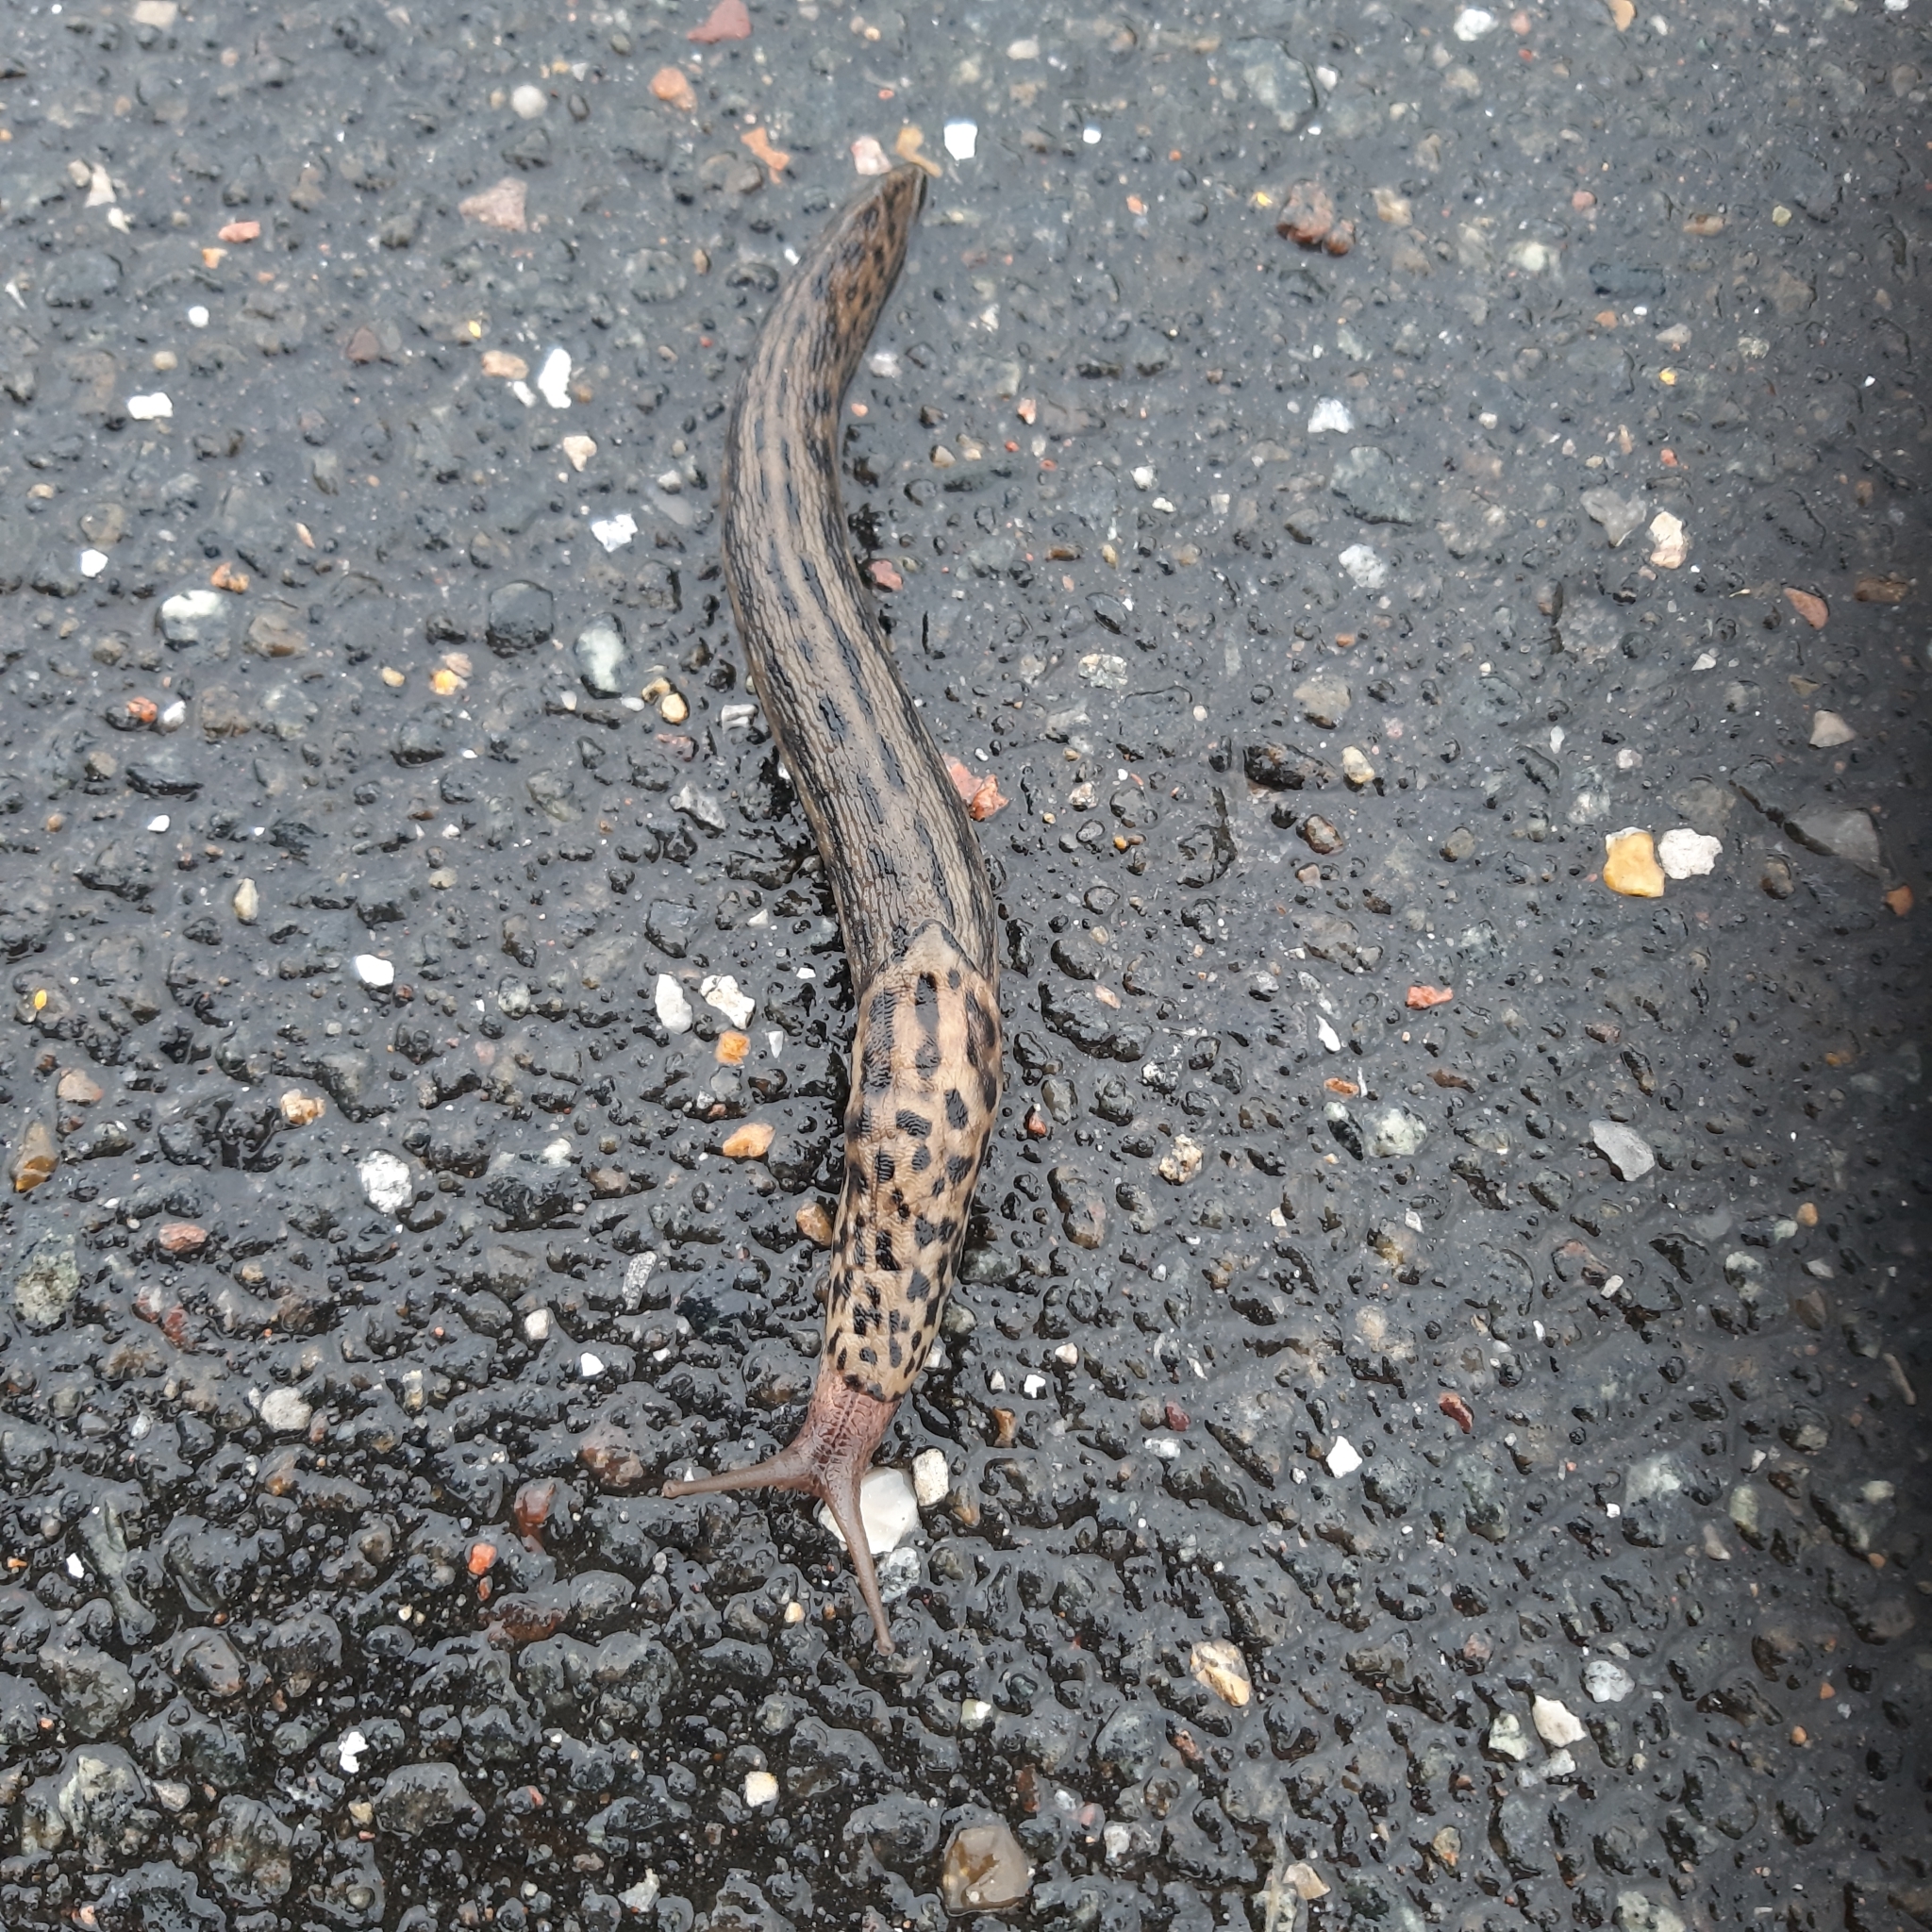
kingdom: Animalia
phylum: Mollusca
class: Gastropoda
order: Stylommatophora
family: Limacidae
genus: Limax
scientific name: Limax maximus
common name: Great grey slug
